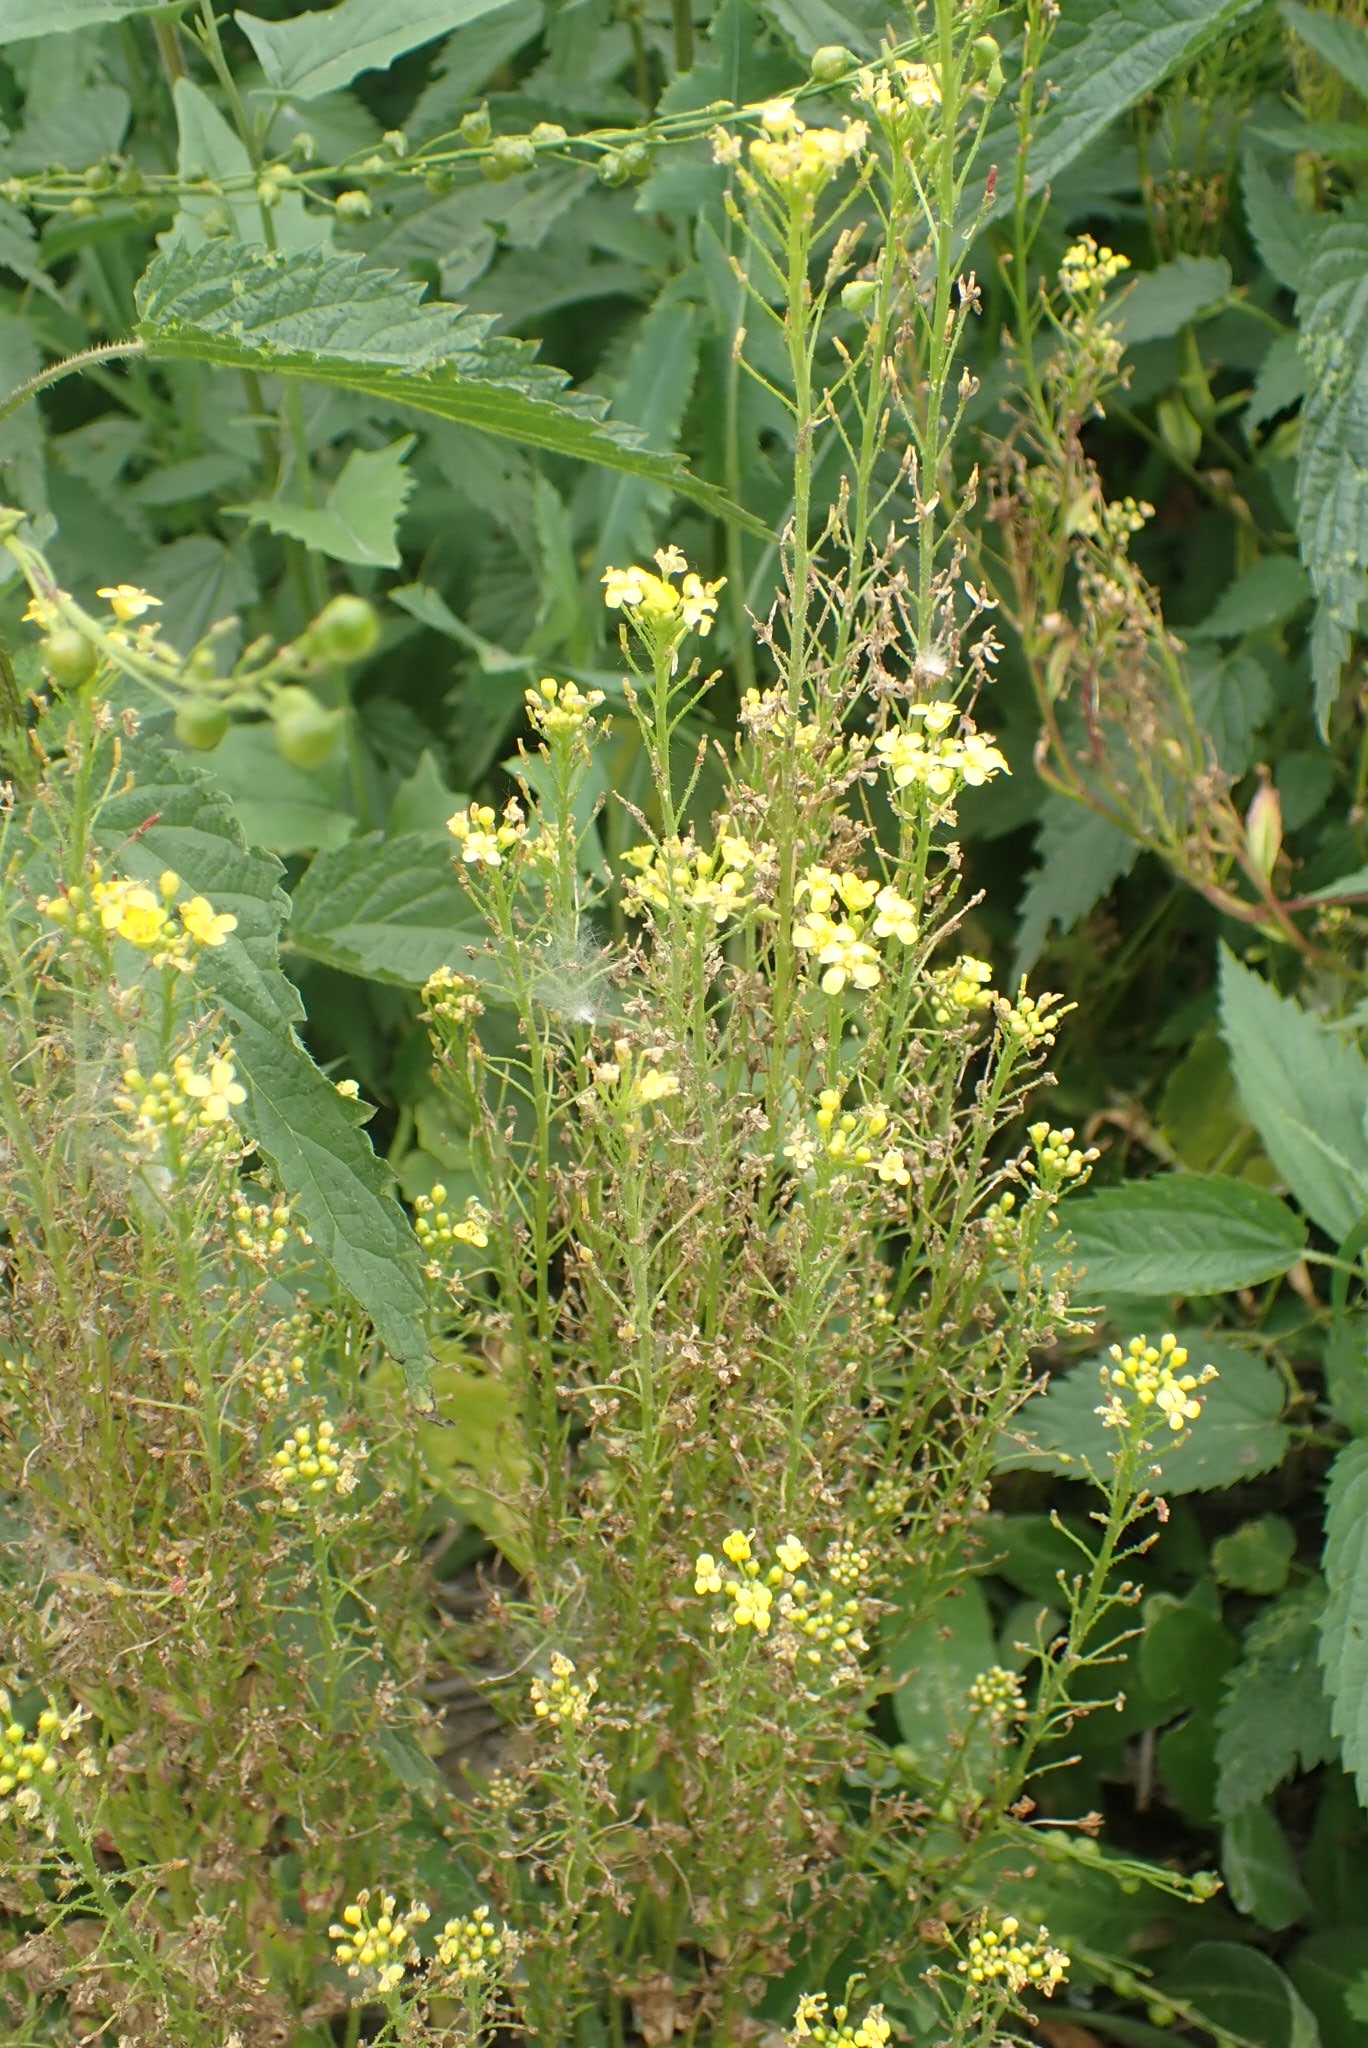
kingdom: Plantae
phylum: Tracheophyta
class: Magnoliopsida
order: Brassicales
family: Brassicaceae
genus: Bunias
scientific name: Bunias orientalis
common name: Warty-cabbage
